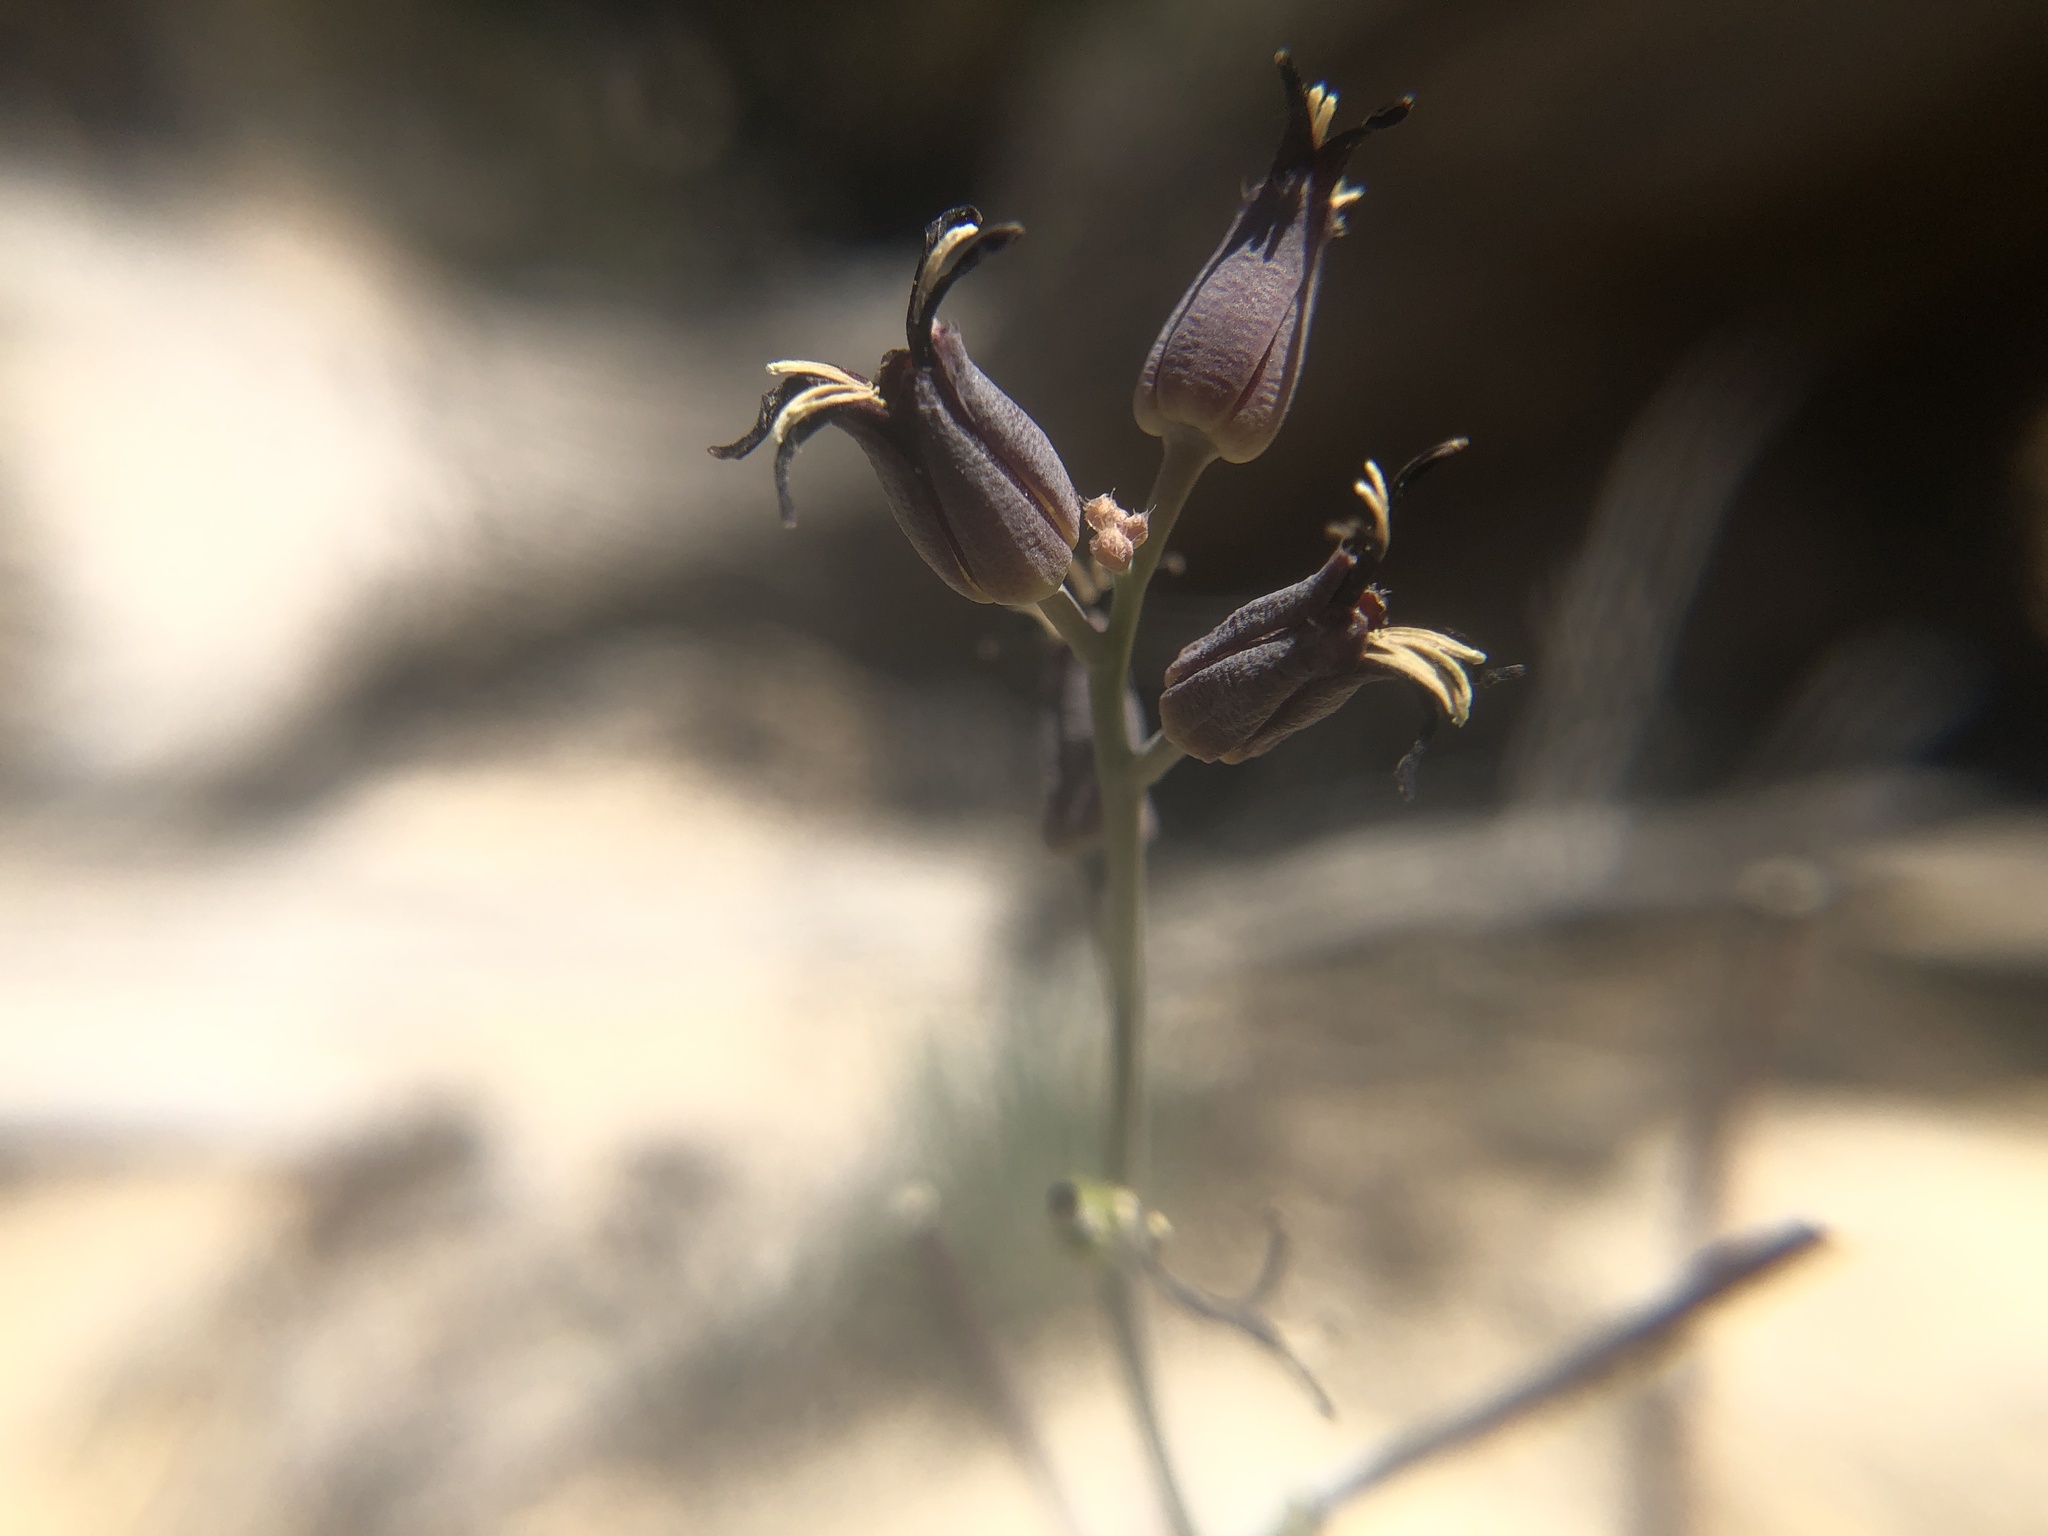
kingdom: Plantae
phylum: Tracheophyta
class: Magnoliopsida
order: Brassicales
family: Brassicaceae
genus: Streptanthus
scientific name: Streptanthus cordatus
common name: Heart-leaf jewel-flower
